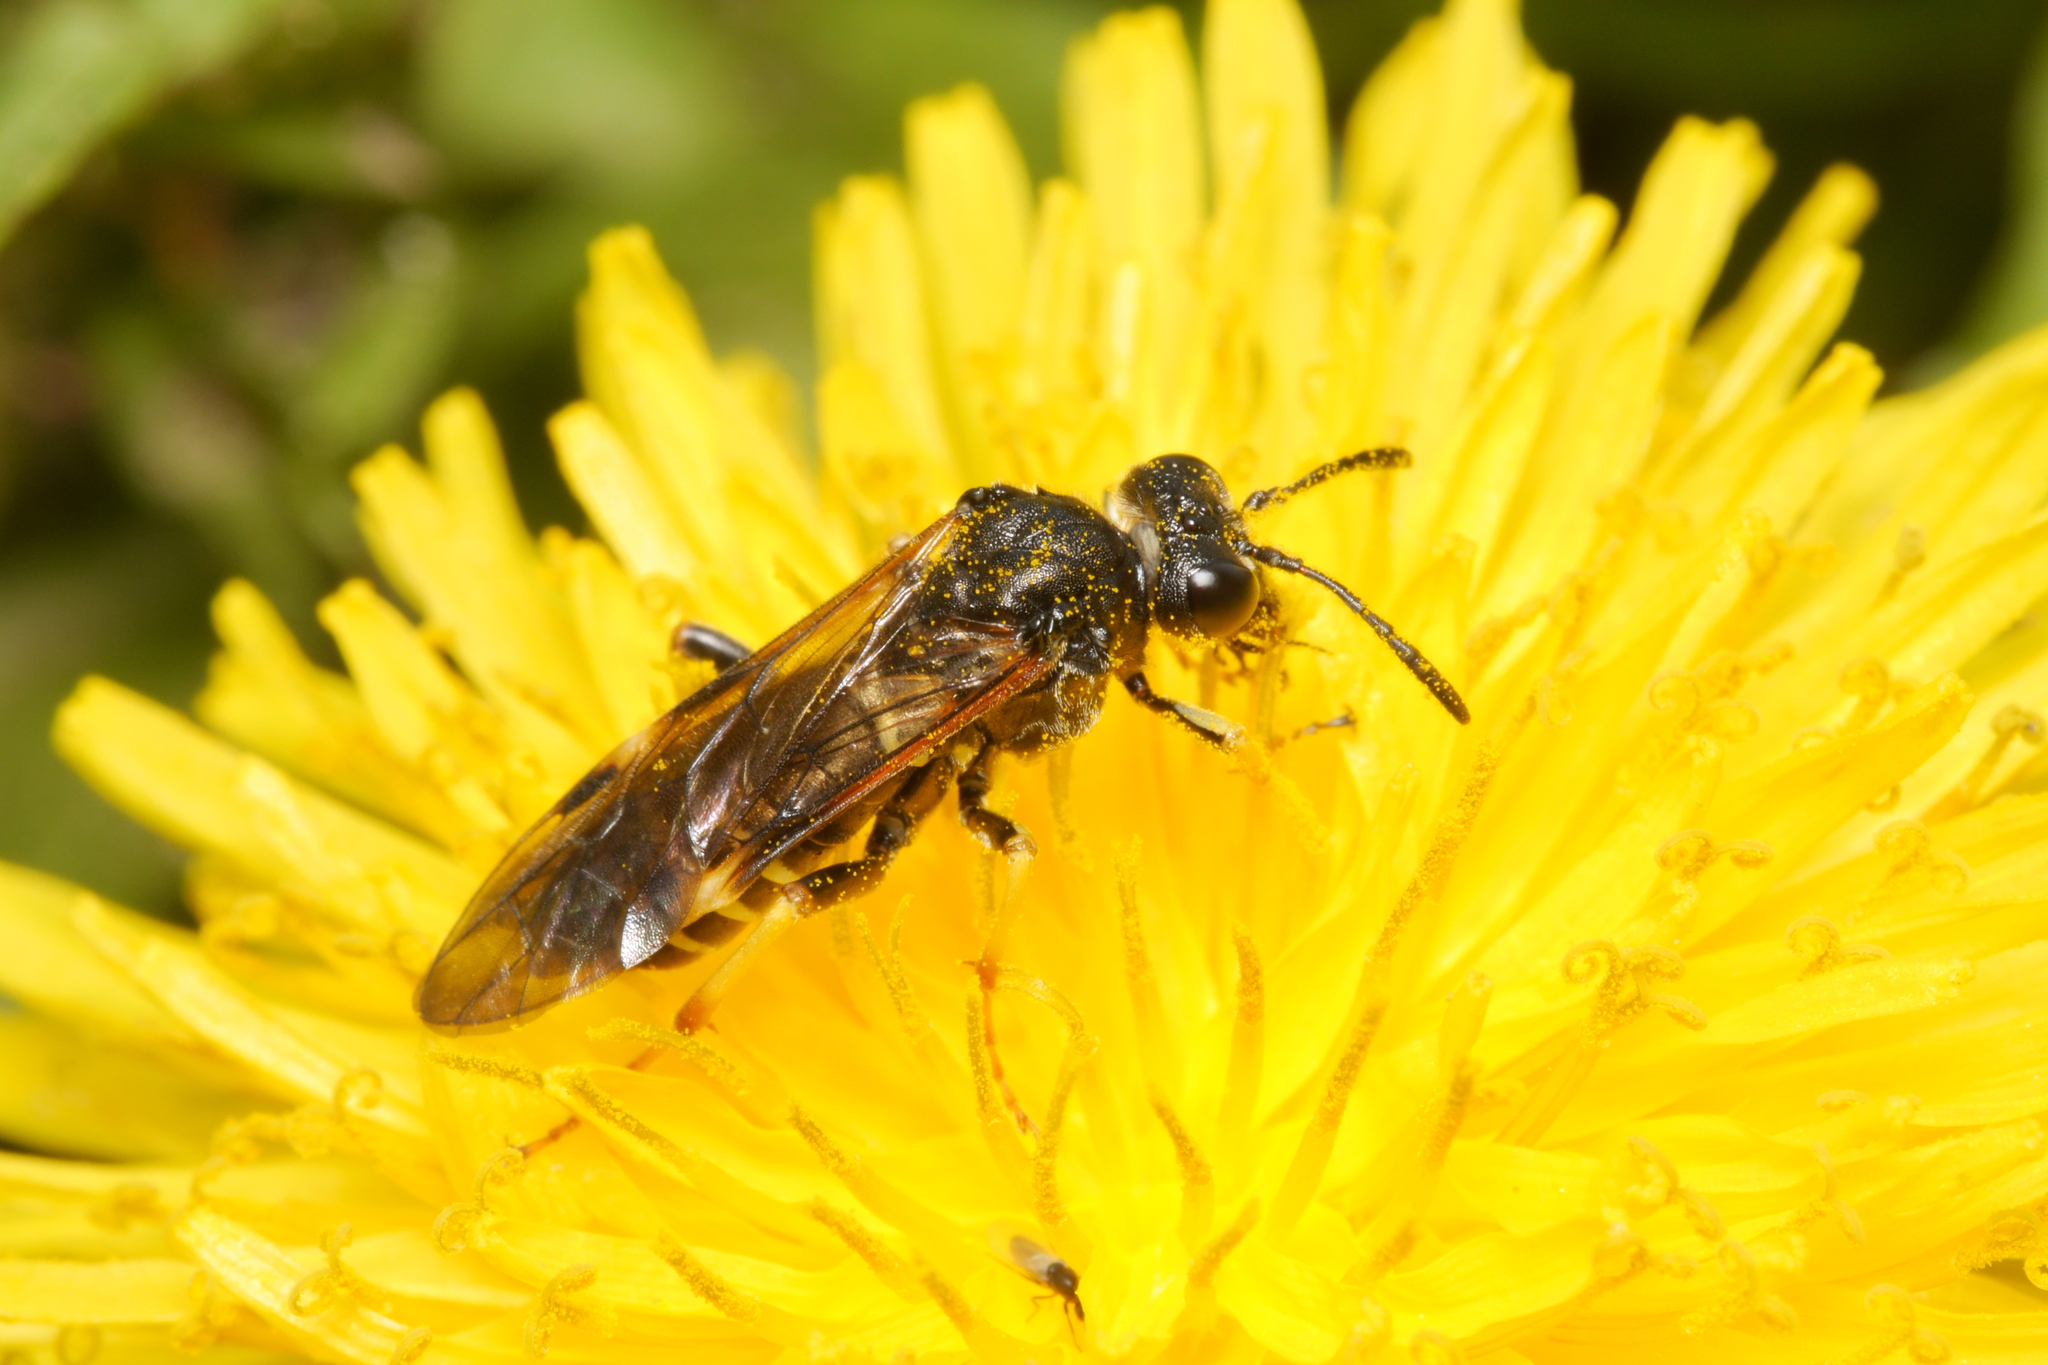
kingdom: Animalia
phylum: Arthropoda
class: Insecta
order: Hymenoptera
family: Tenthredinidae
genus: Tenthredo
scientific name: Tenthredo koehleri
